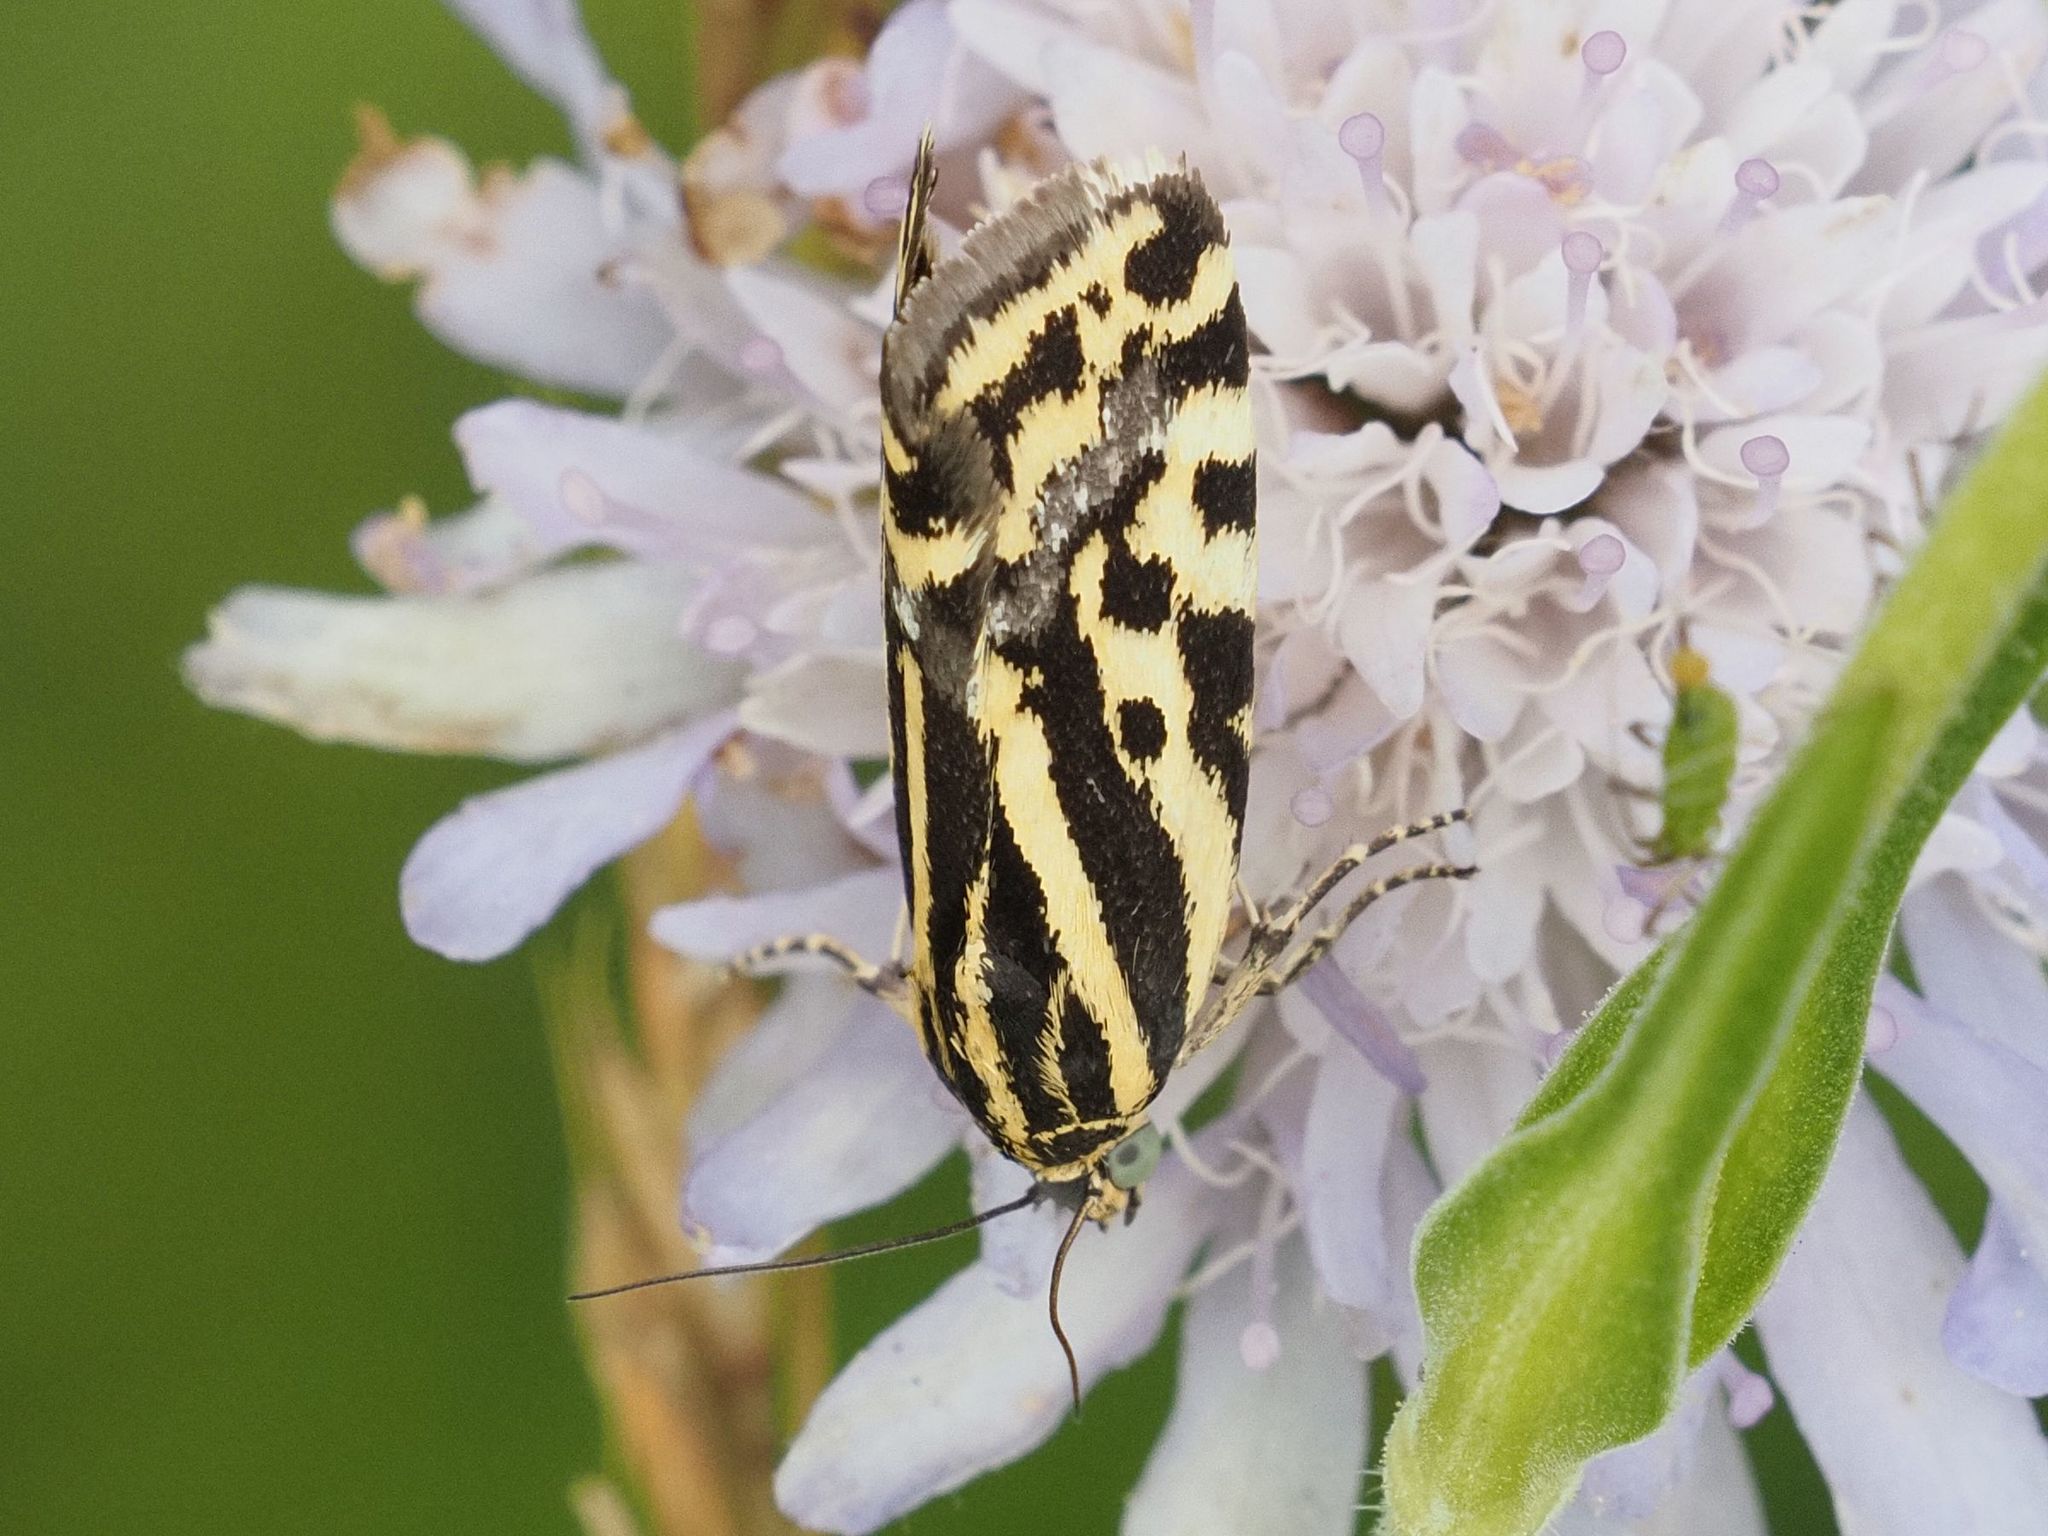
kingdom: Animalia
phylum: Arthropoda
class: Insecta
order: Lepidoptera
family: Noctuidae
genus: Acontia
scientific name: Acontia trabealis
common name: Spotted sulphur
